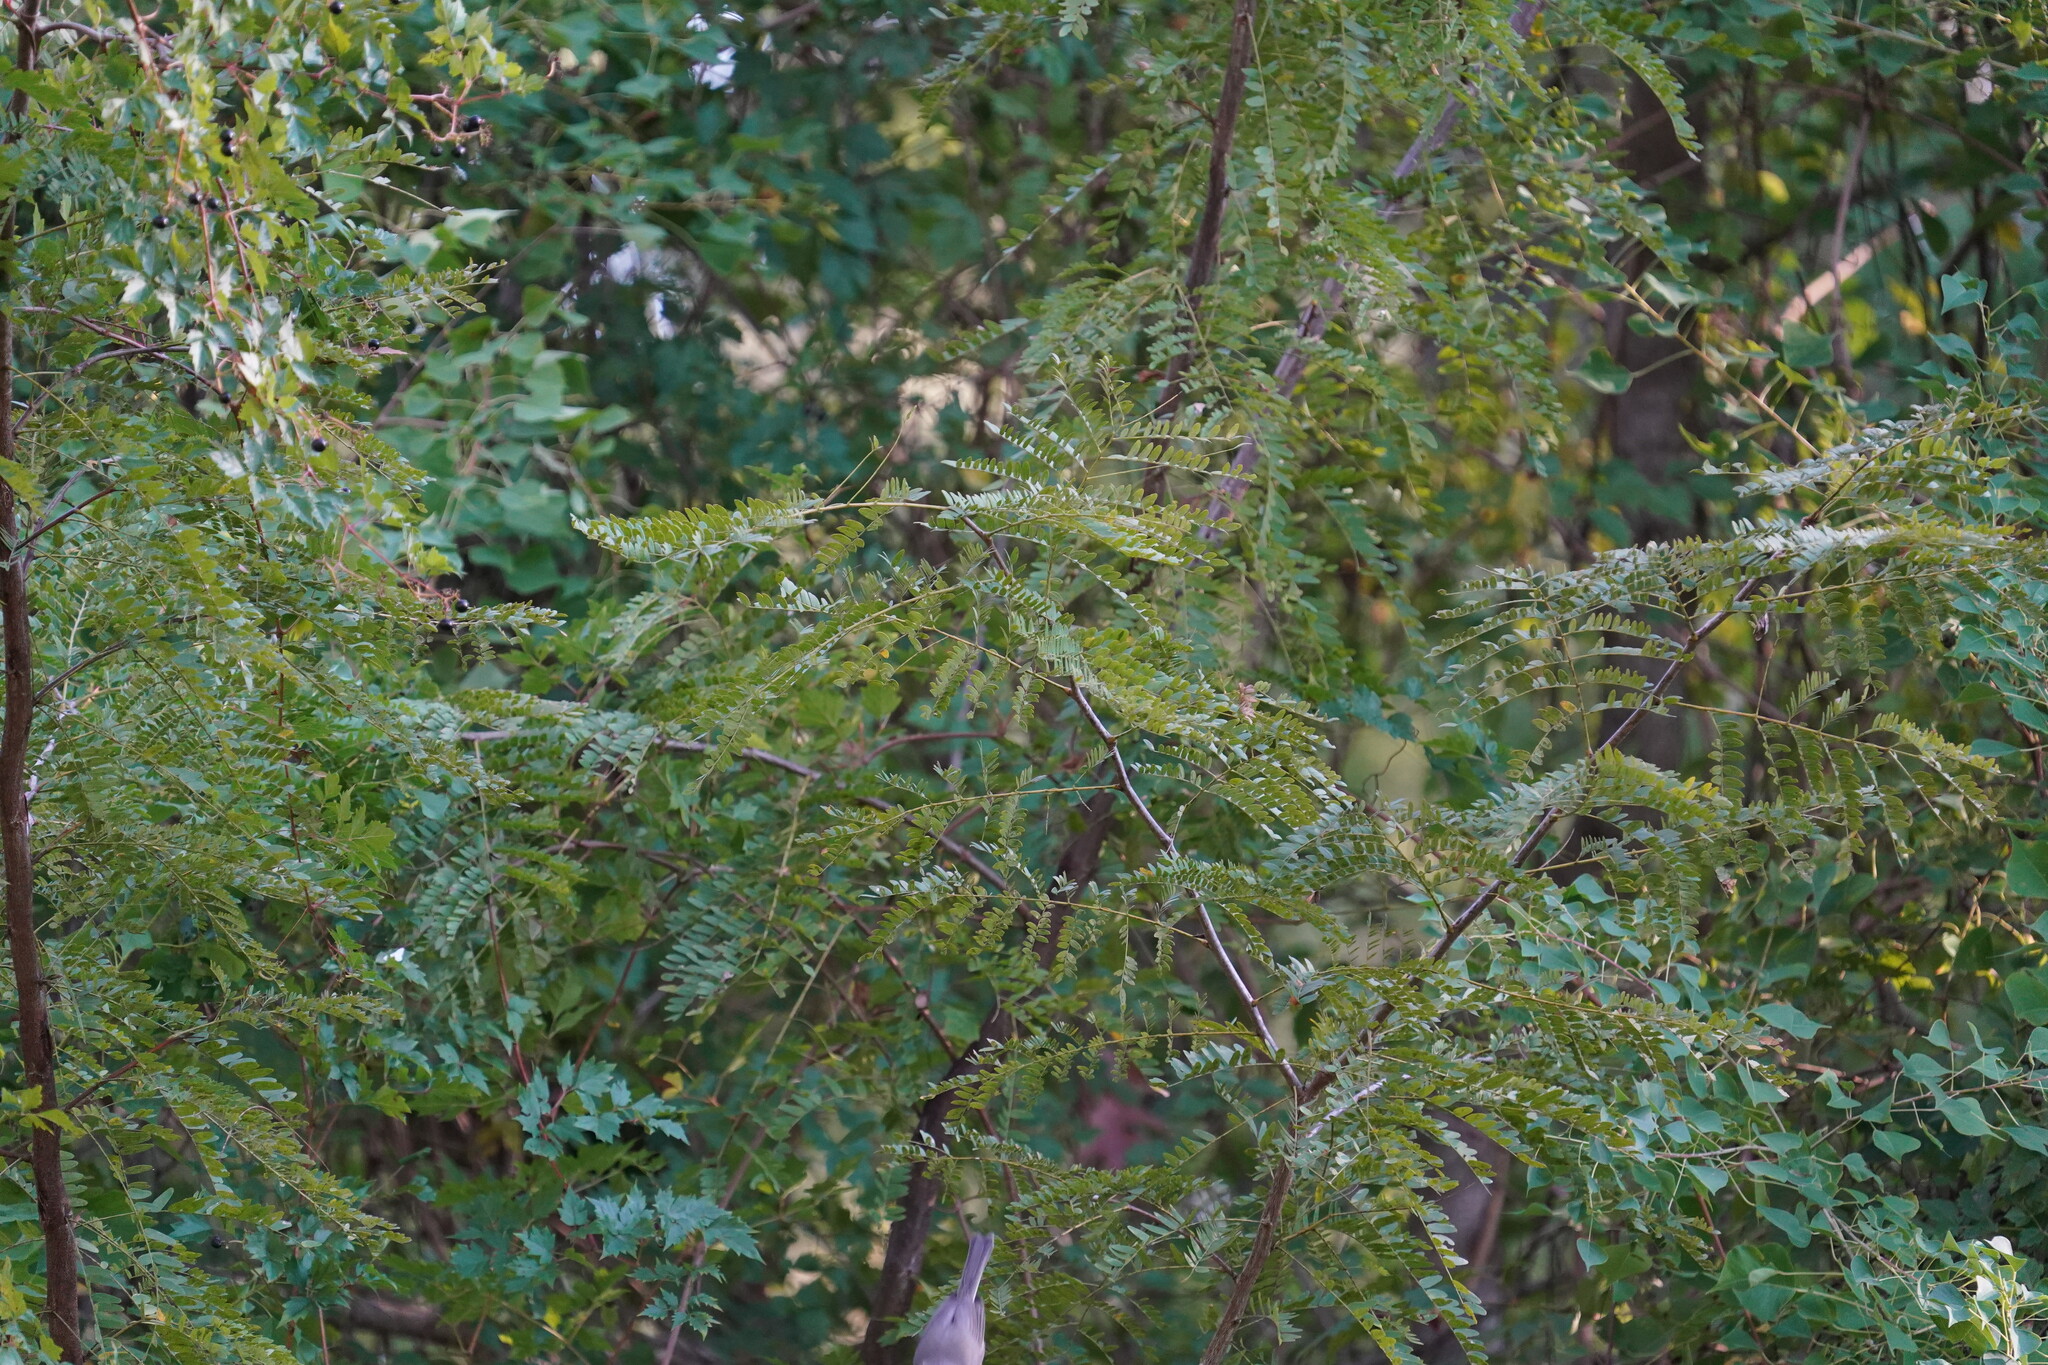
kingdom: Animalia
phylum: Chordata
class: Aves
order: Passeriformes
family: Paridae
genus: Baeolophus
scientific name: Baeolophus bicolor
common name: Tufted titmouse
